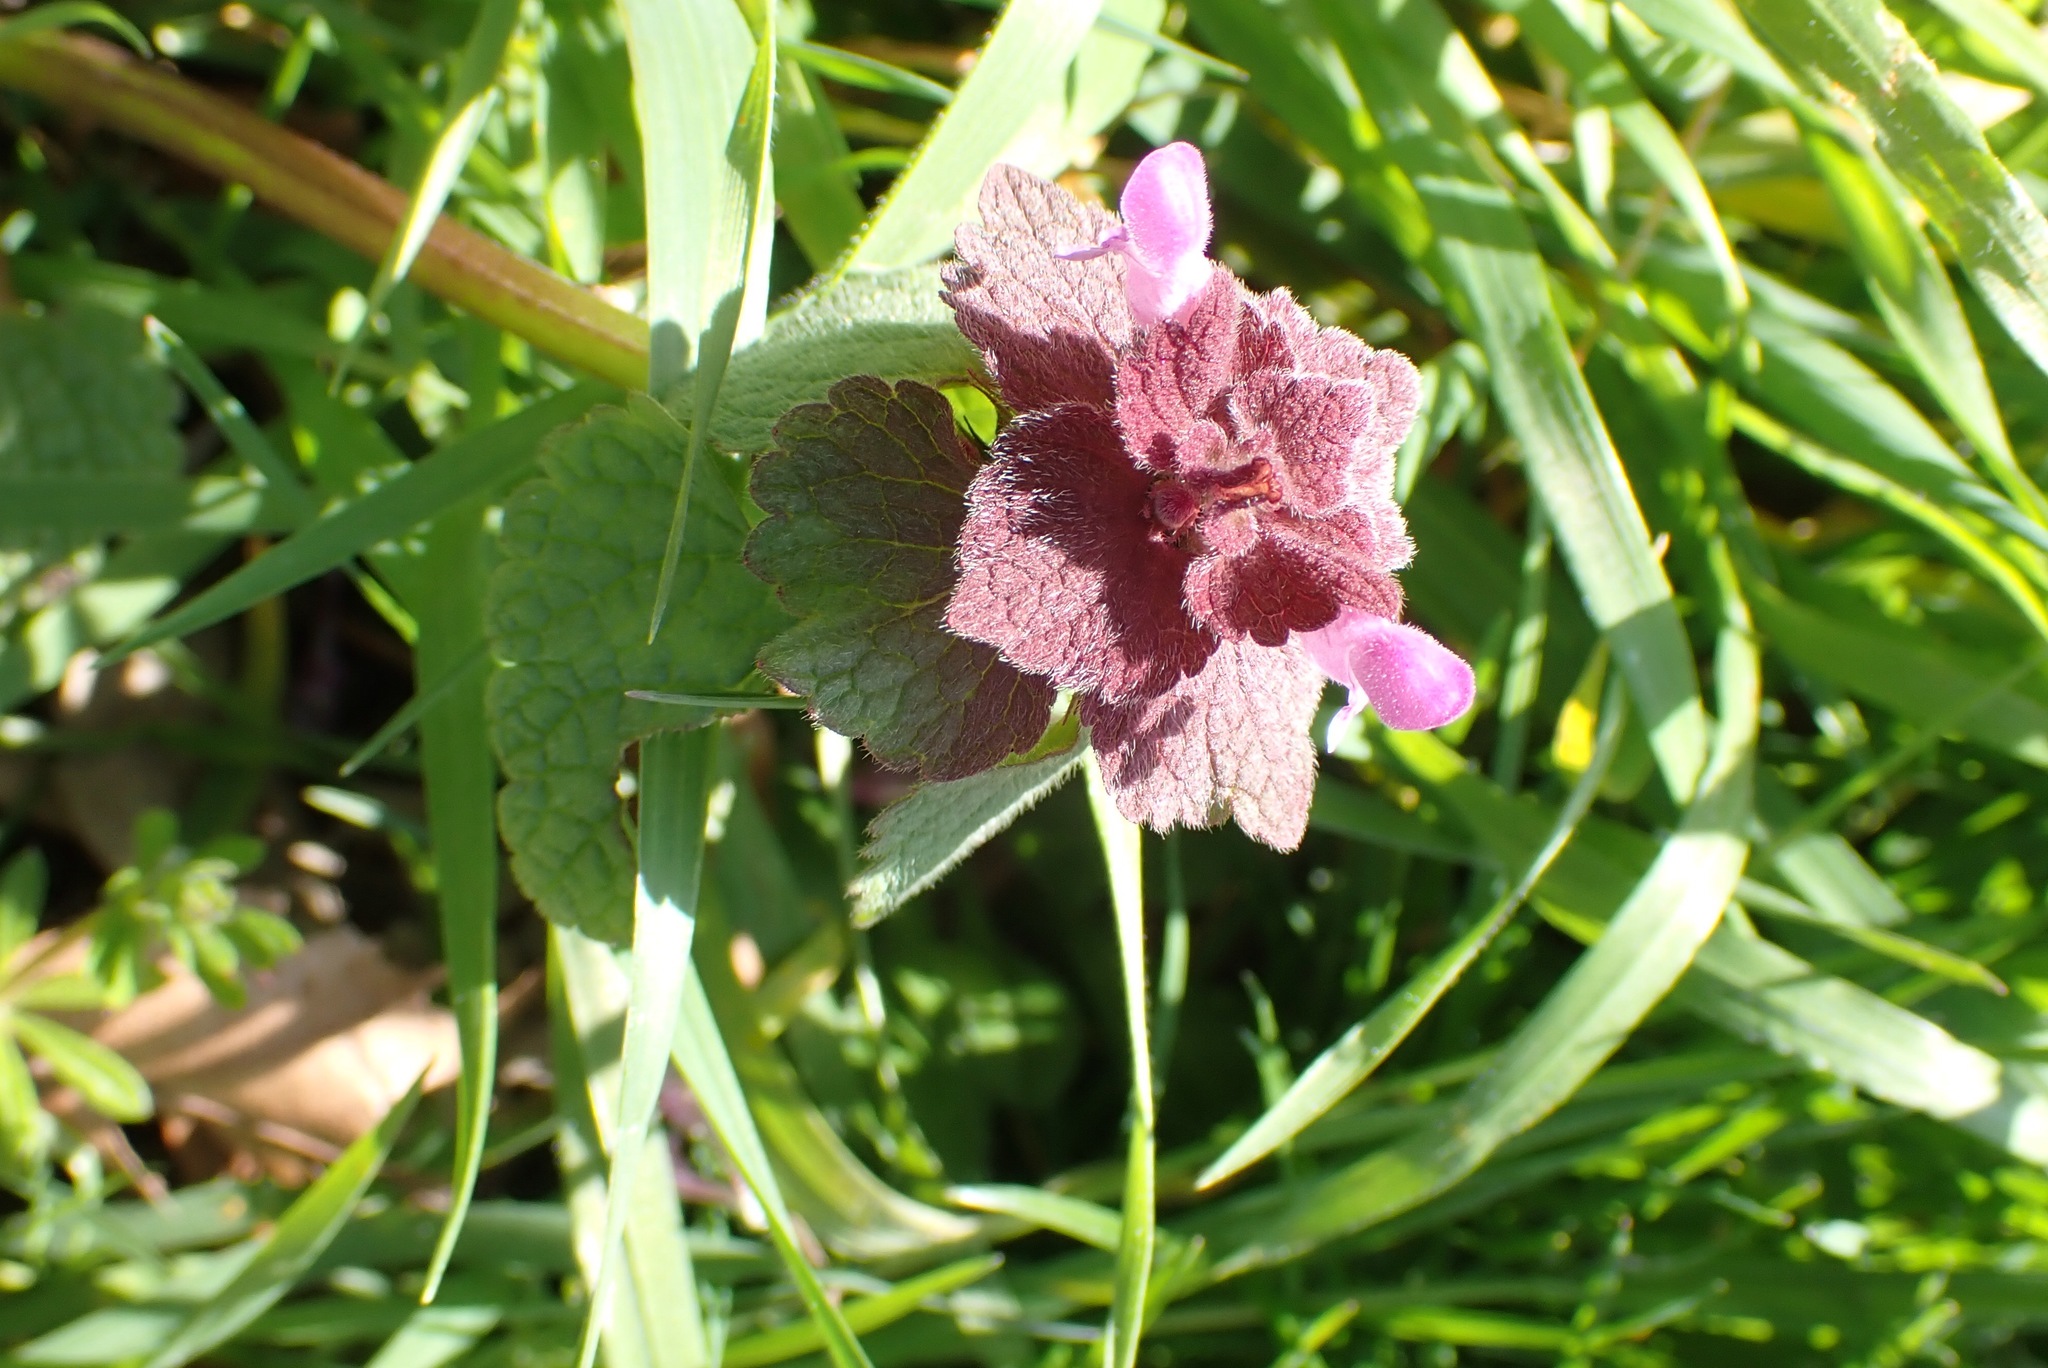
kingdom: Plantae
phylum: Tracheophyta
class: Magnoliopsida
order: Lamiales
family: Lamiaceae
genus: Lamium
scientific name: Lamium purpureum
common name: Red dead-nettle
